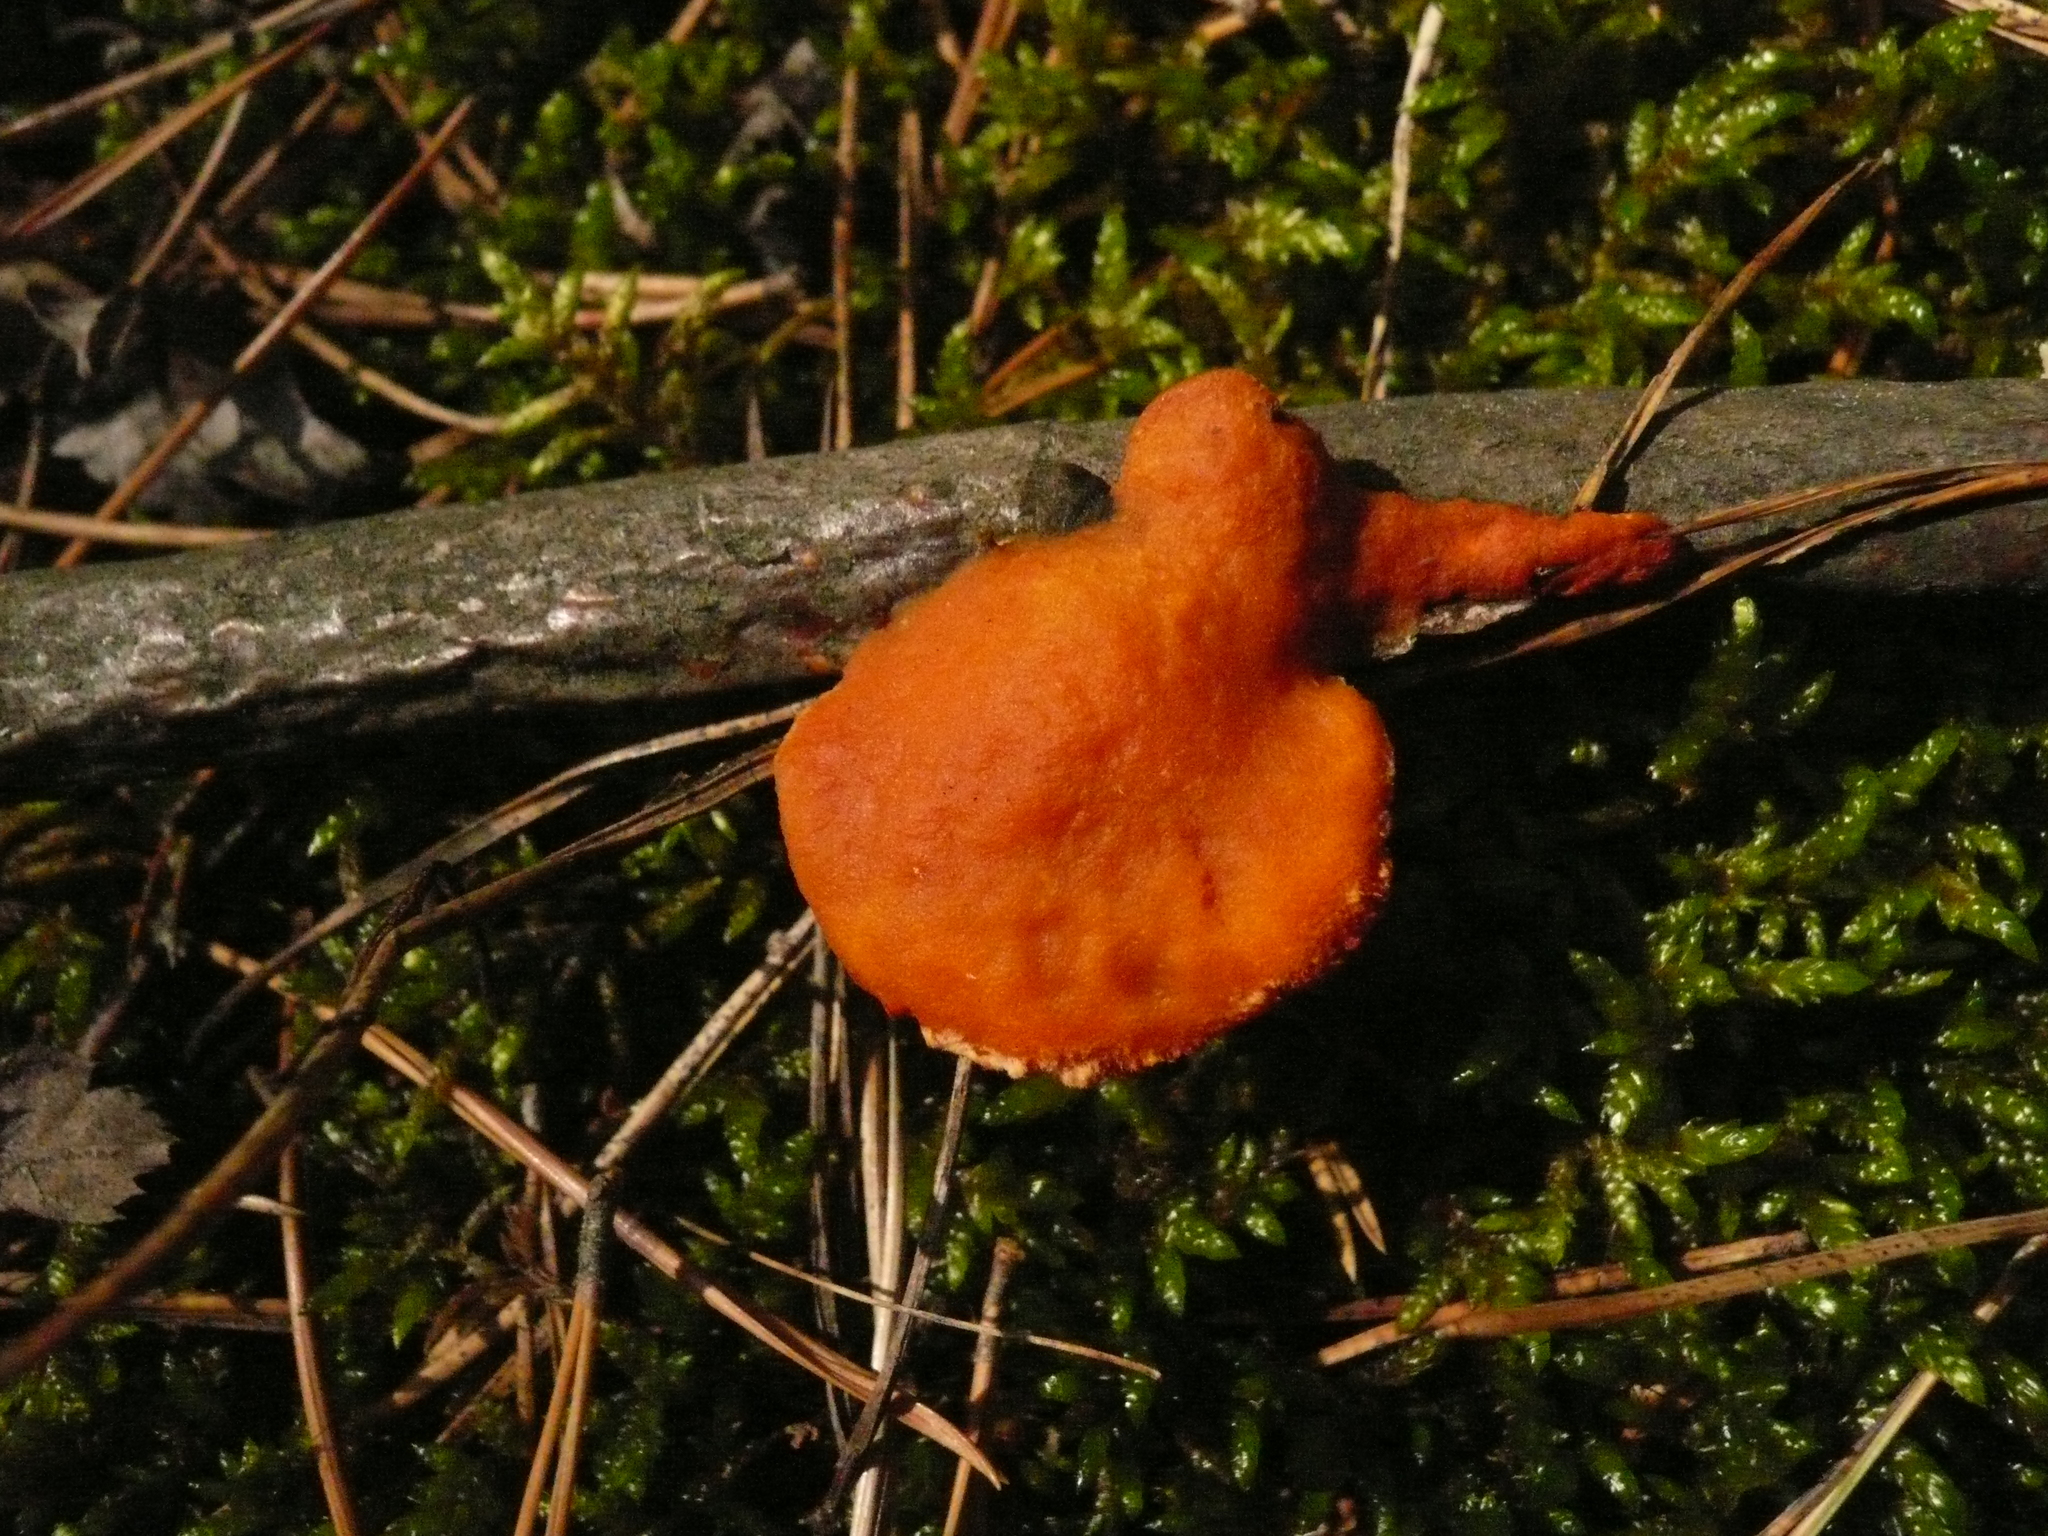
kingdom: Fungi
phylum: Basidiomycota
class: Agaricomycetes
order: Polyporales
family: Polyporaceae
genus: Trametes
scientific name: Trametes cinnabarina
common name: Northern cinnabar polypore
